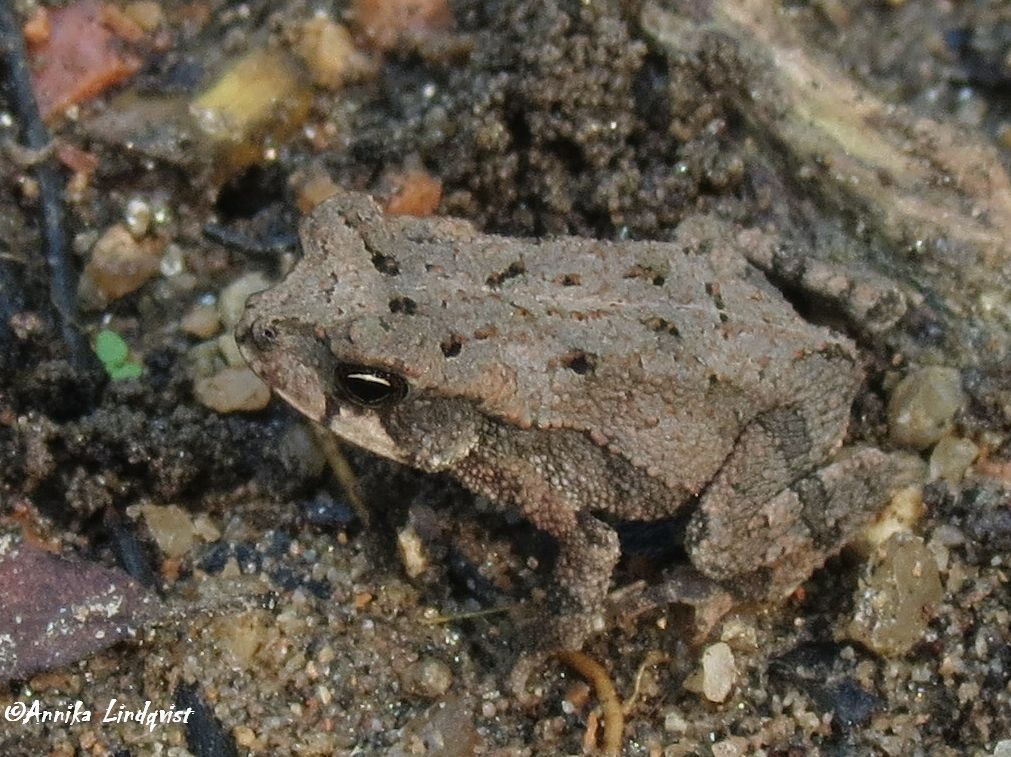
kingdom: Animalia
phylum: Chordata
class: Amphibia
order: Anura
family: Bufonidae
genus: Incilius
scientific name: Incilius nebulifer
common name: Gulf coast toad
